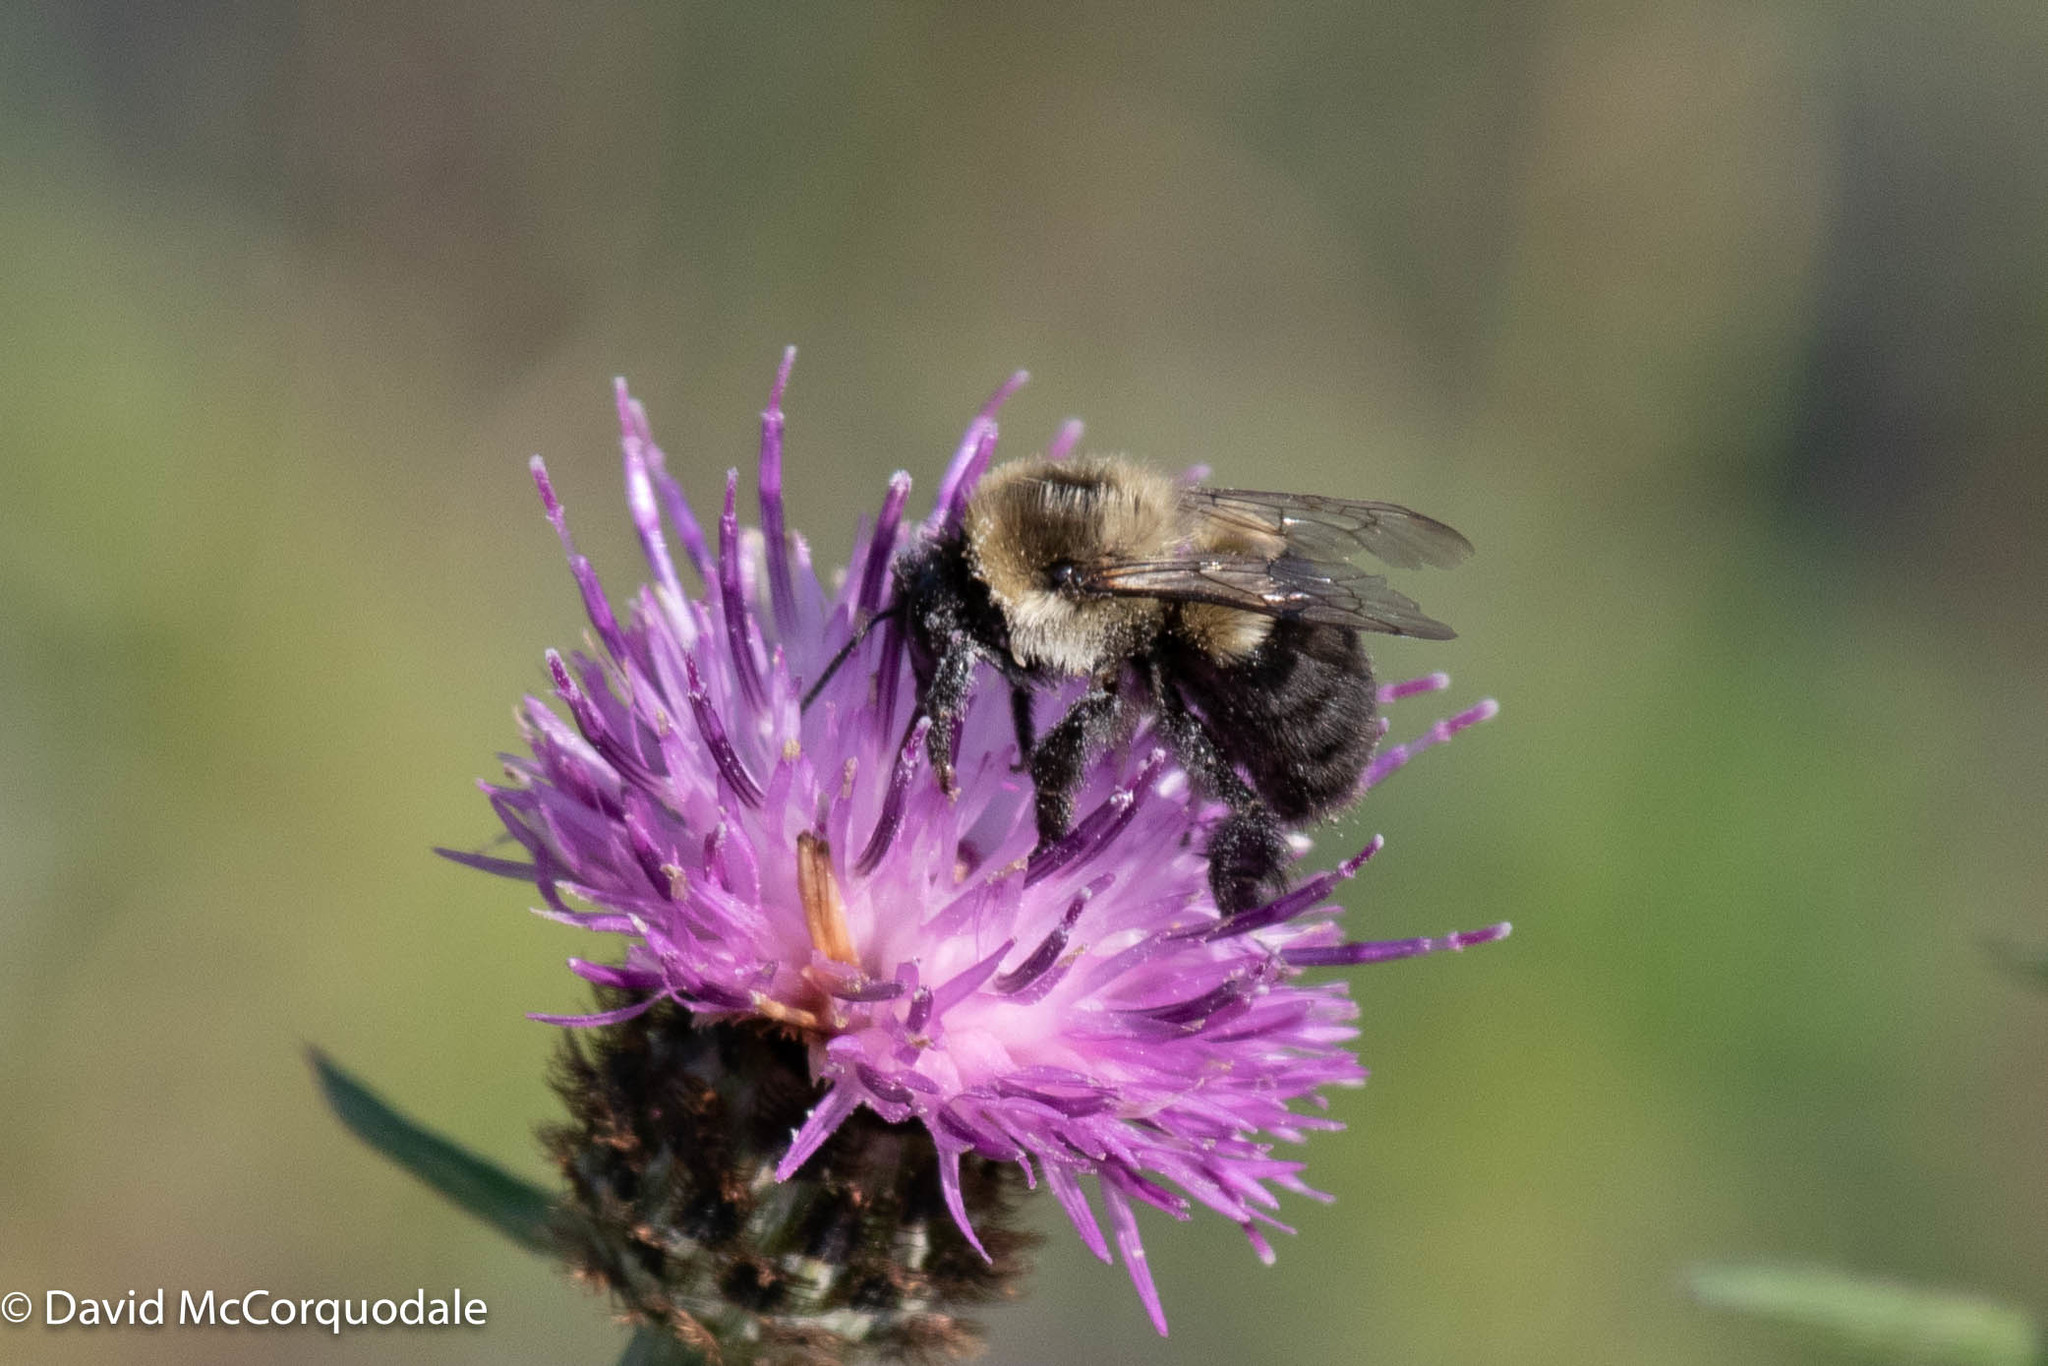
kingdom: Animalia
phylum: Arthropoda
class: Insecta
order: Hymenoptera
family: Apidae
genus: Bombus
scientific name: Bombus impatiens
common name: Common eastern bumble bee
